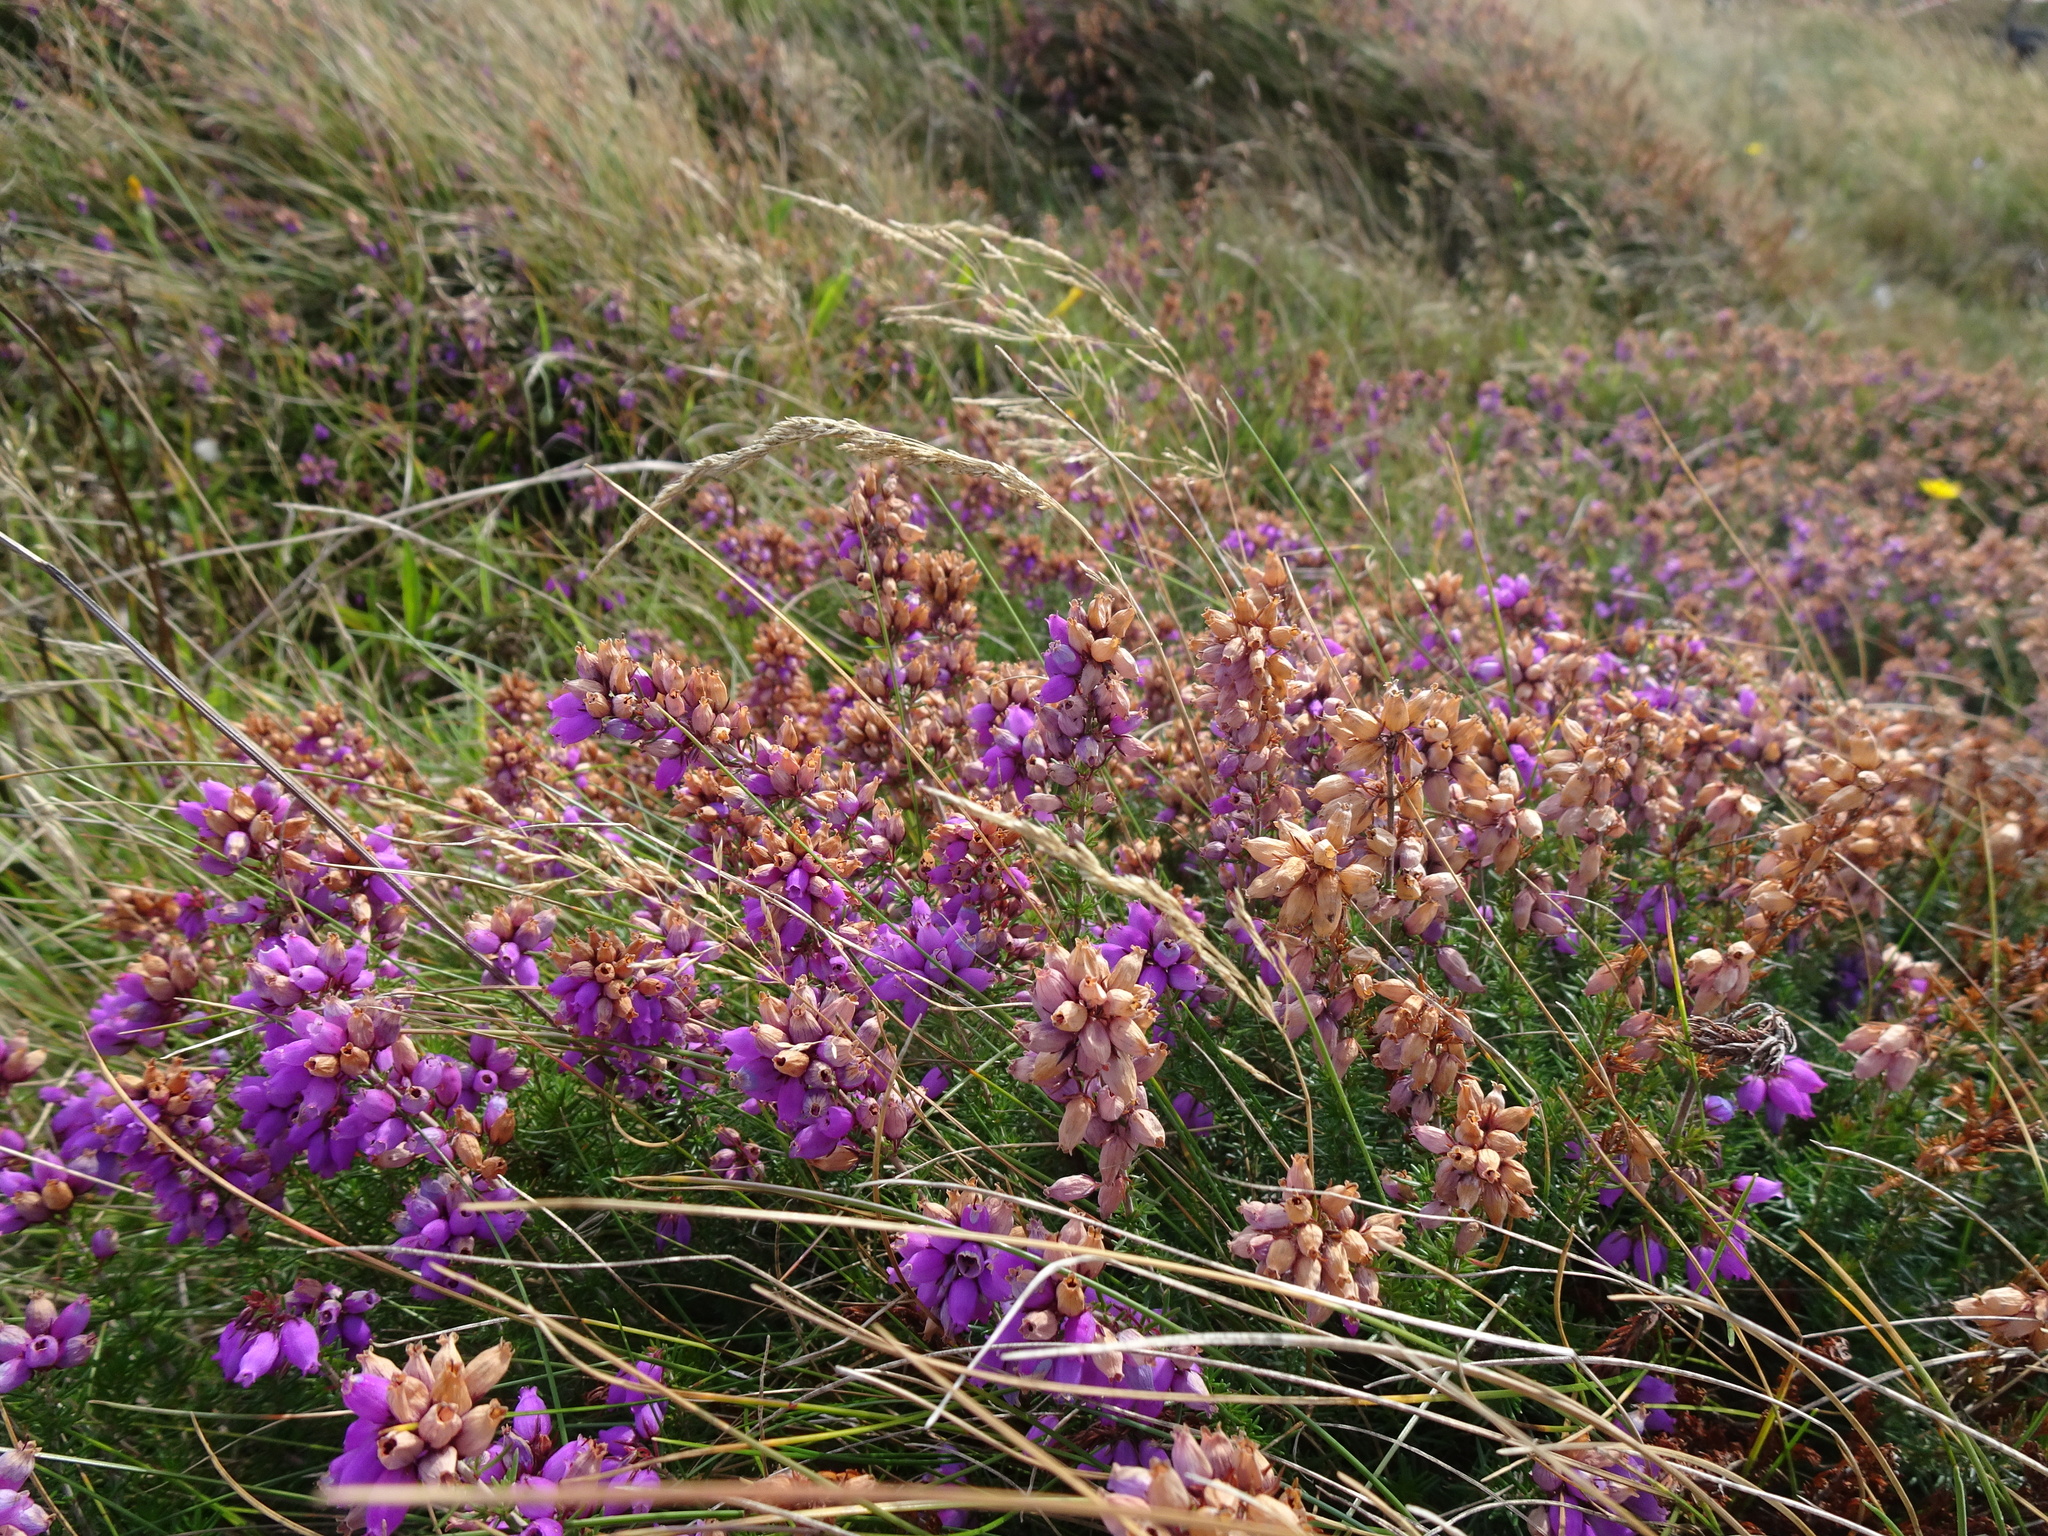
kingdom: Plantae
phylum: Tracheophyta
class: Magnoliopsida
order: Ericales
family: Ericaceae
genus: Erica
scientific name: Erica cinerea
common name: Bell heather
